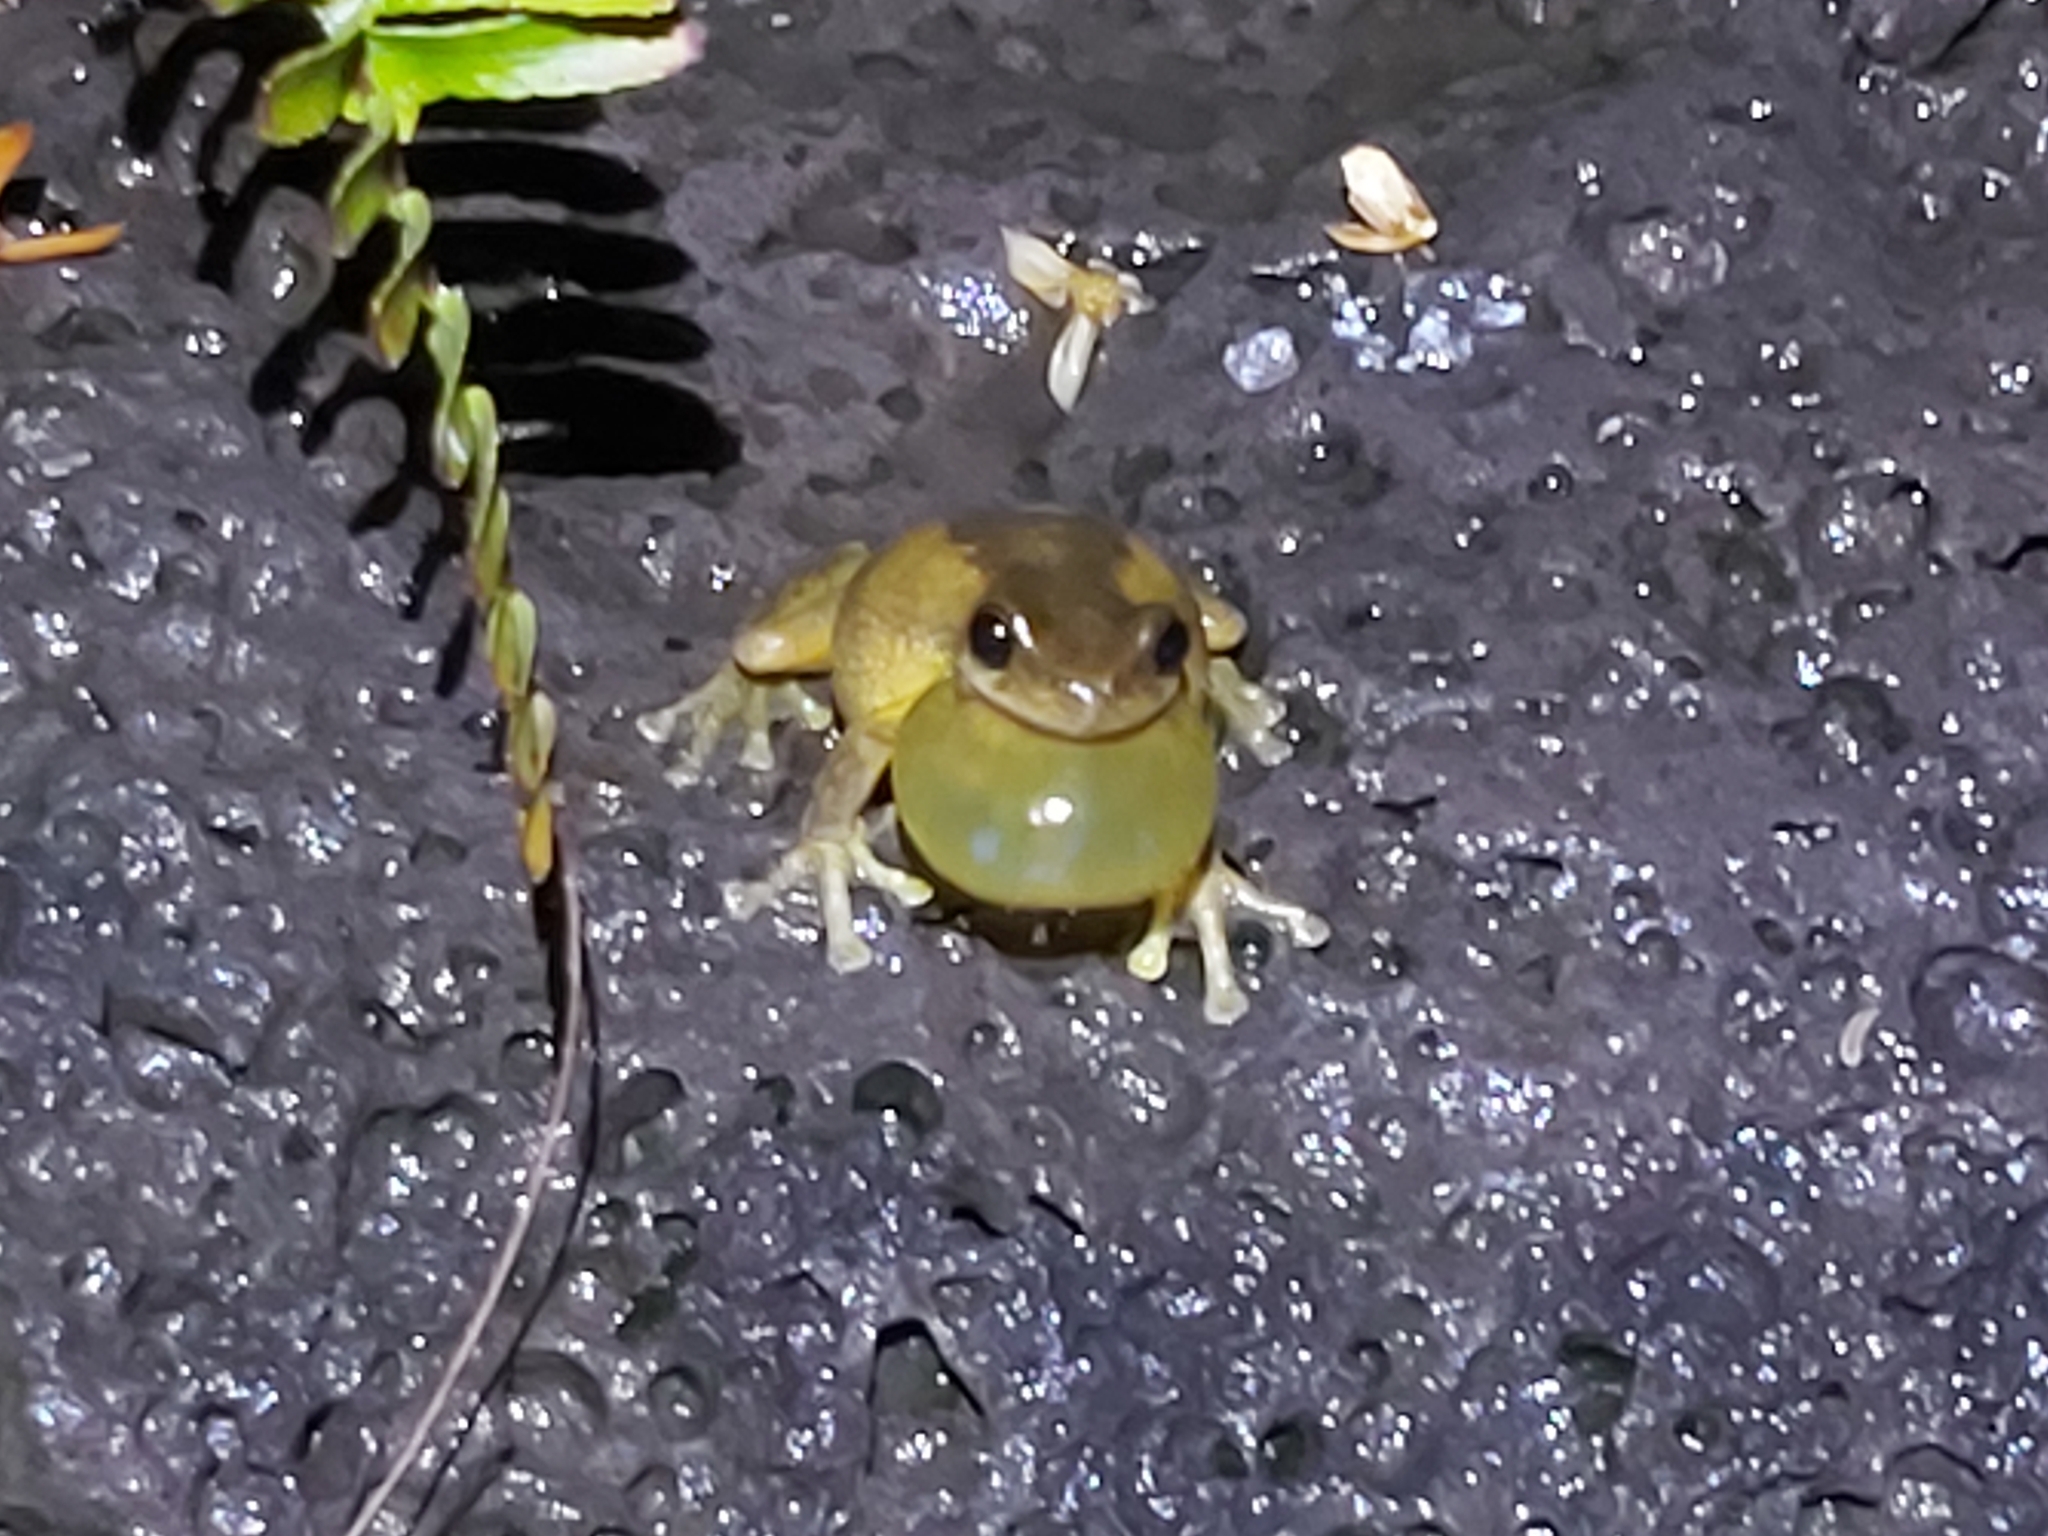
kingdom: Animalia
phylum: Chordata
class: Amphibia
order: Anura
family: Pelodryadidae
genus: Litoria
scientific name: Litoria quiritatus
